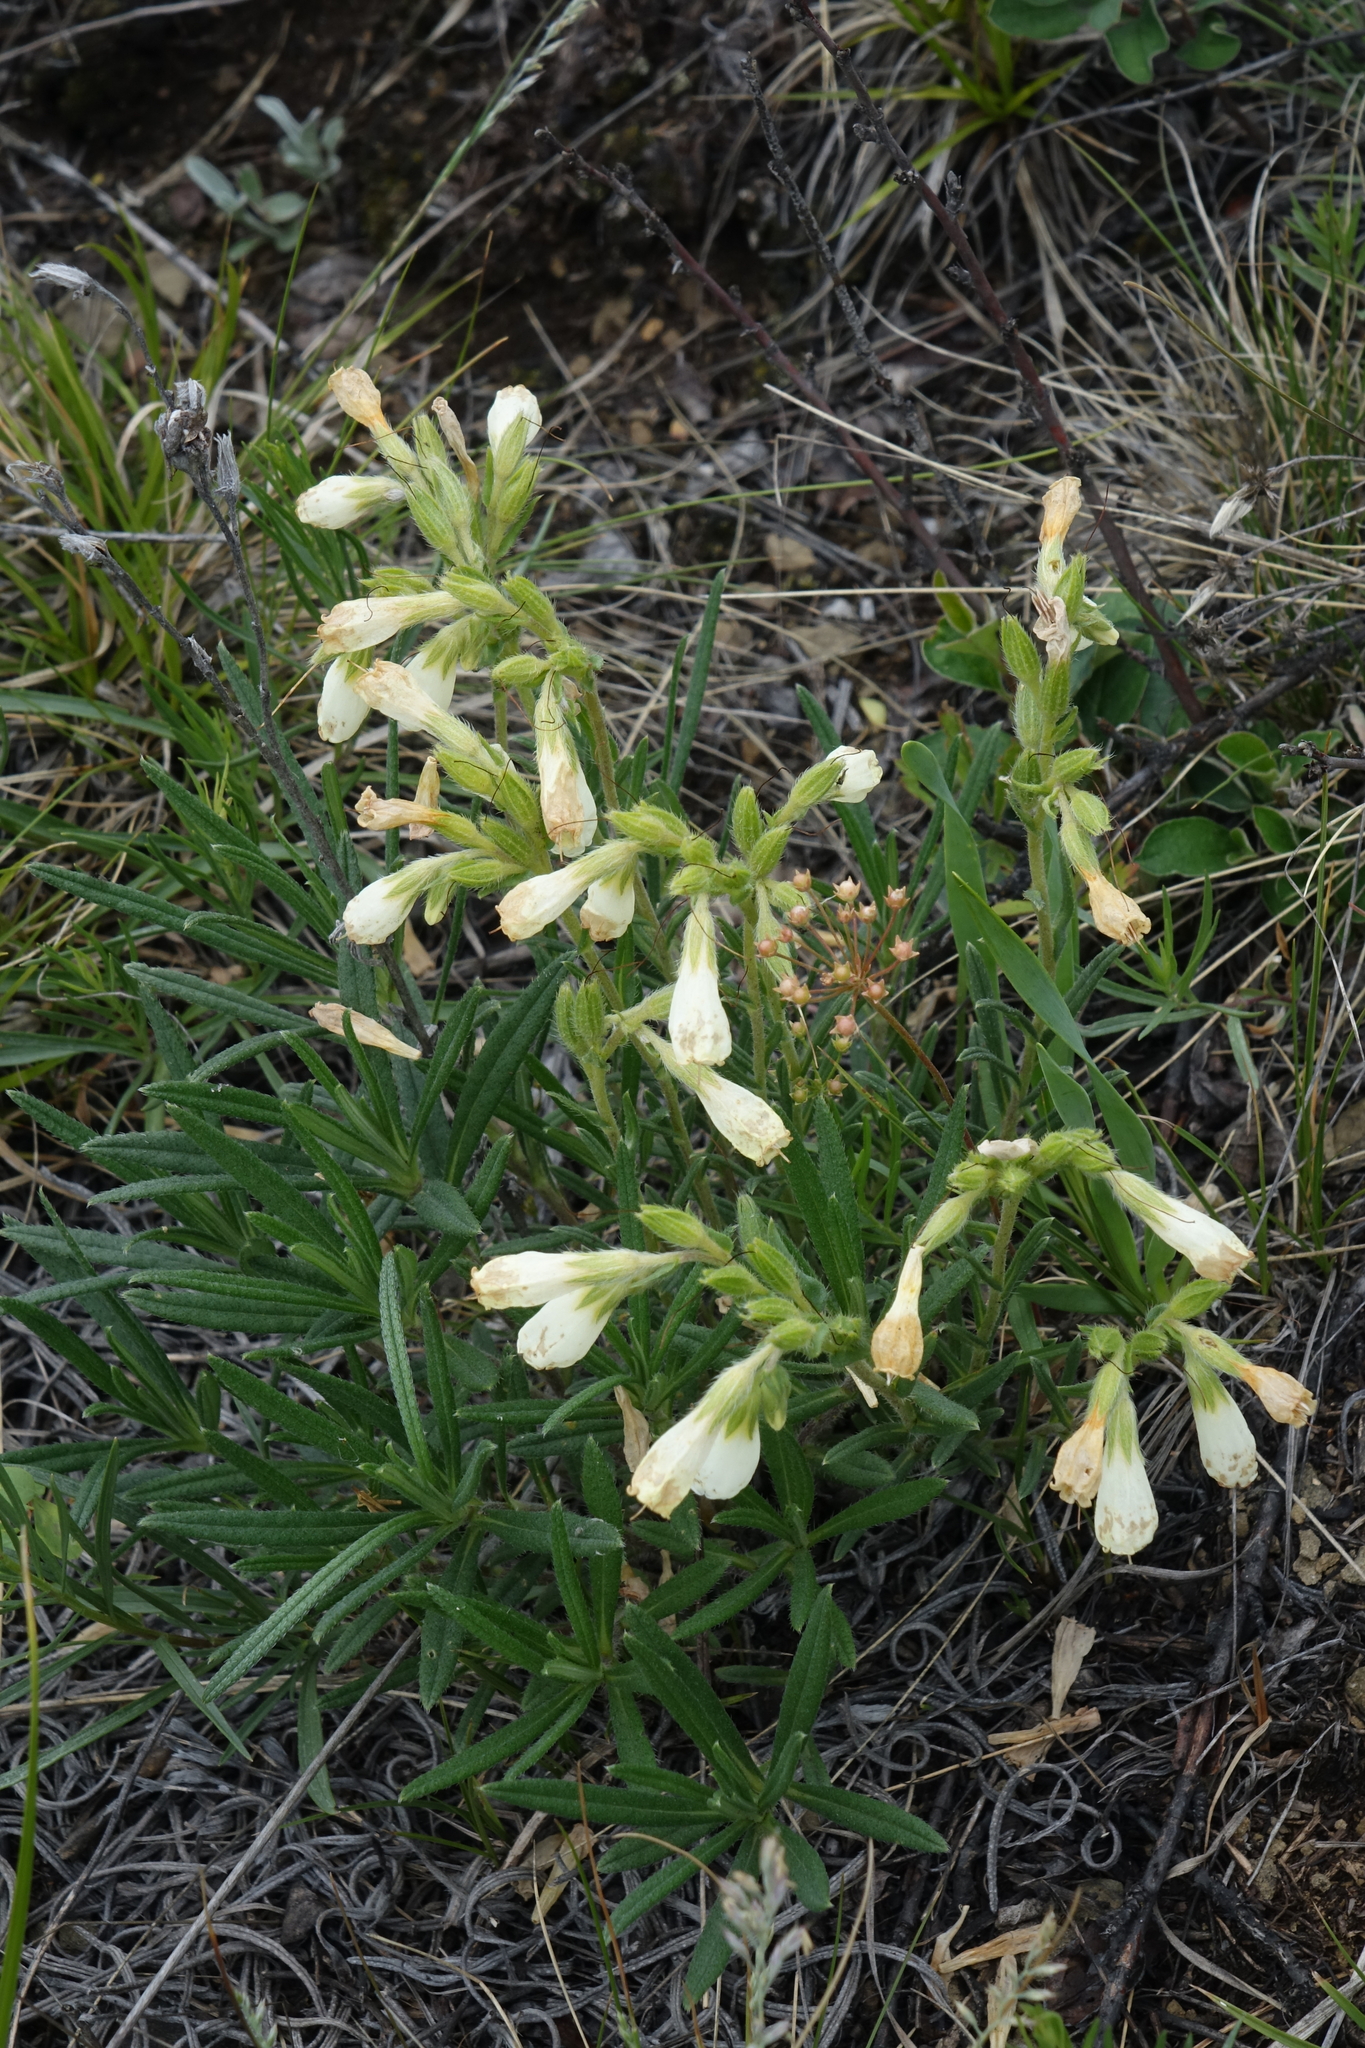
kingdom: Plantae
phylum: Tracheophyta
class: Magnoliopsida
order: Boraginales
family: Boraginaceae
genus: Onosma
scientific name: Onosma simplicissima
